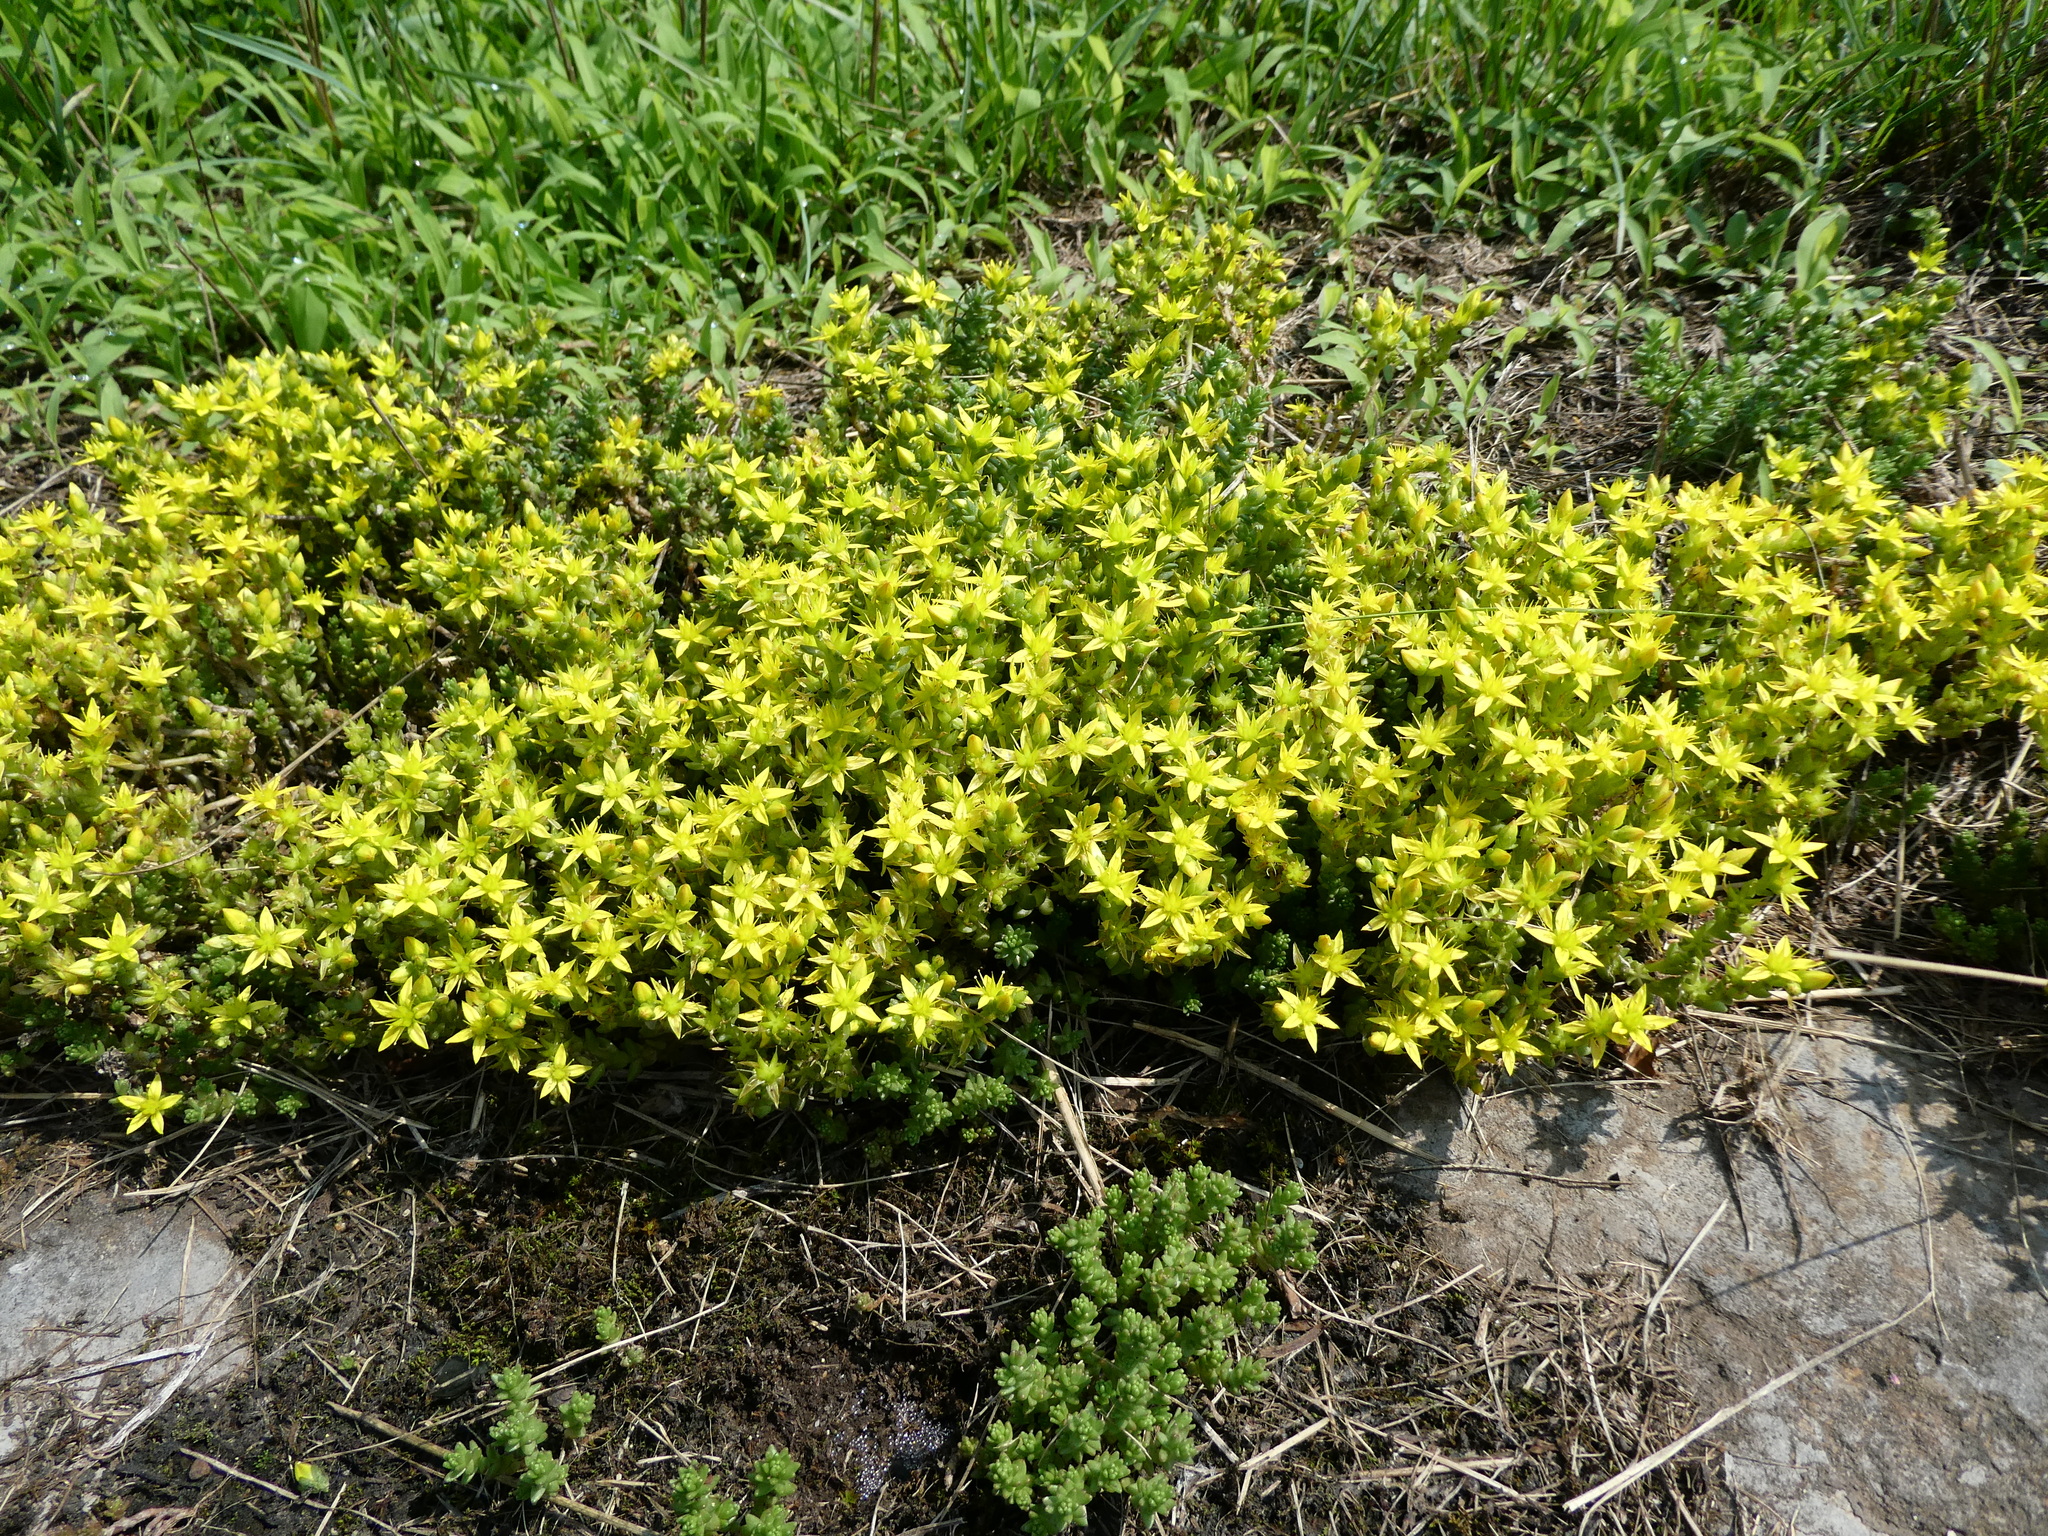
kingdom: Plantae
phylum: Tracheophyta
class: Magnoliopsida
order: Saxifragales
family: Crassulaceae
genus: Sedum
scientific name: Sedum acre
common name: Biting stonecrop
